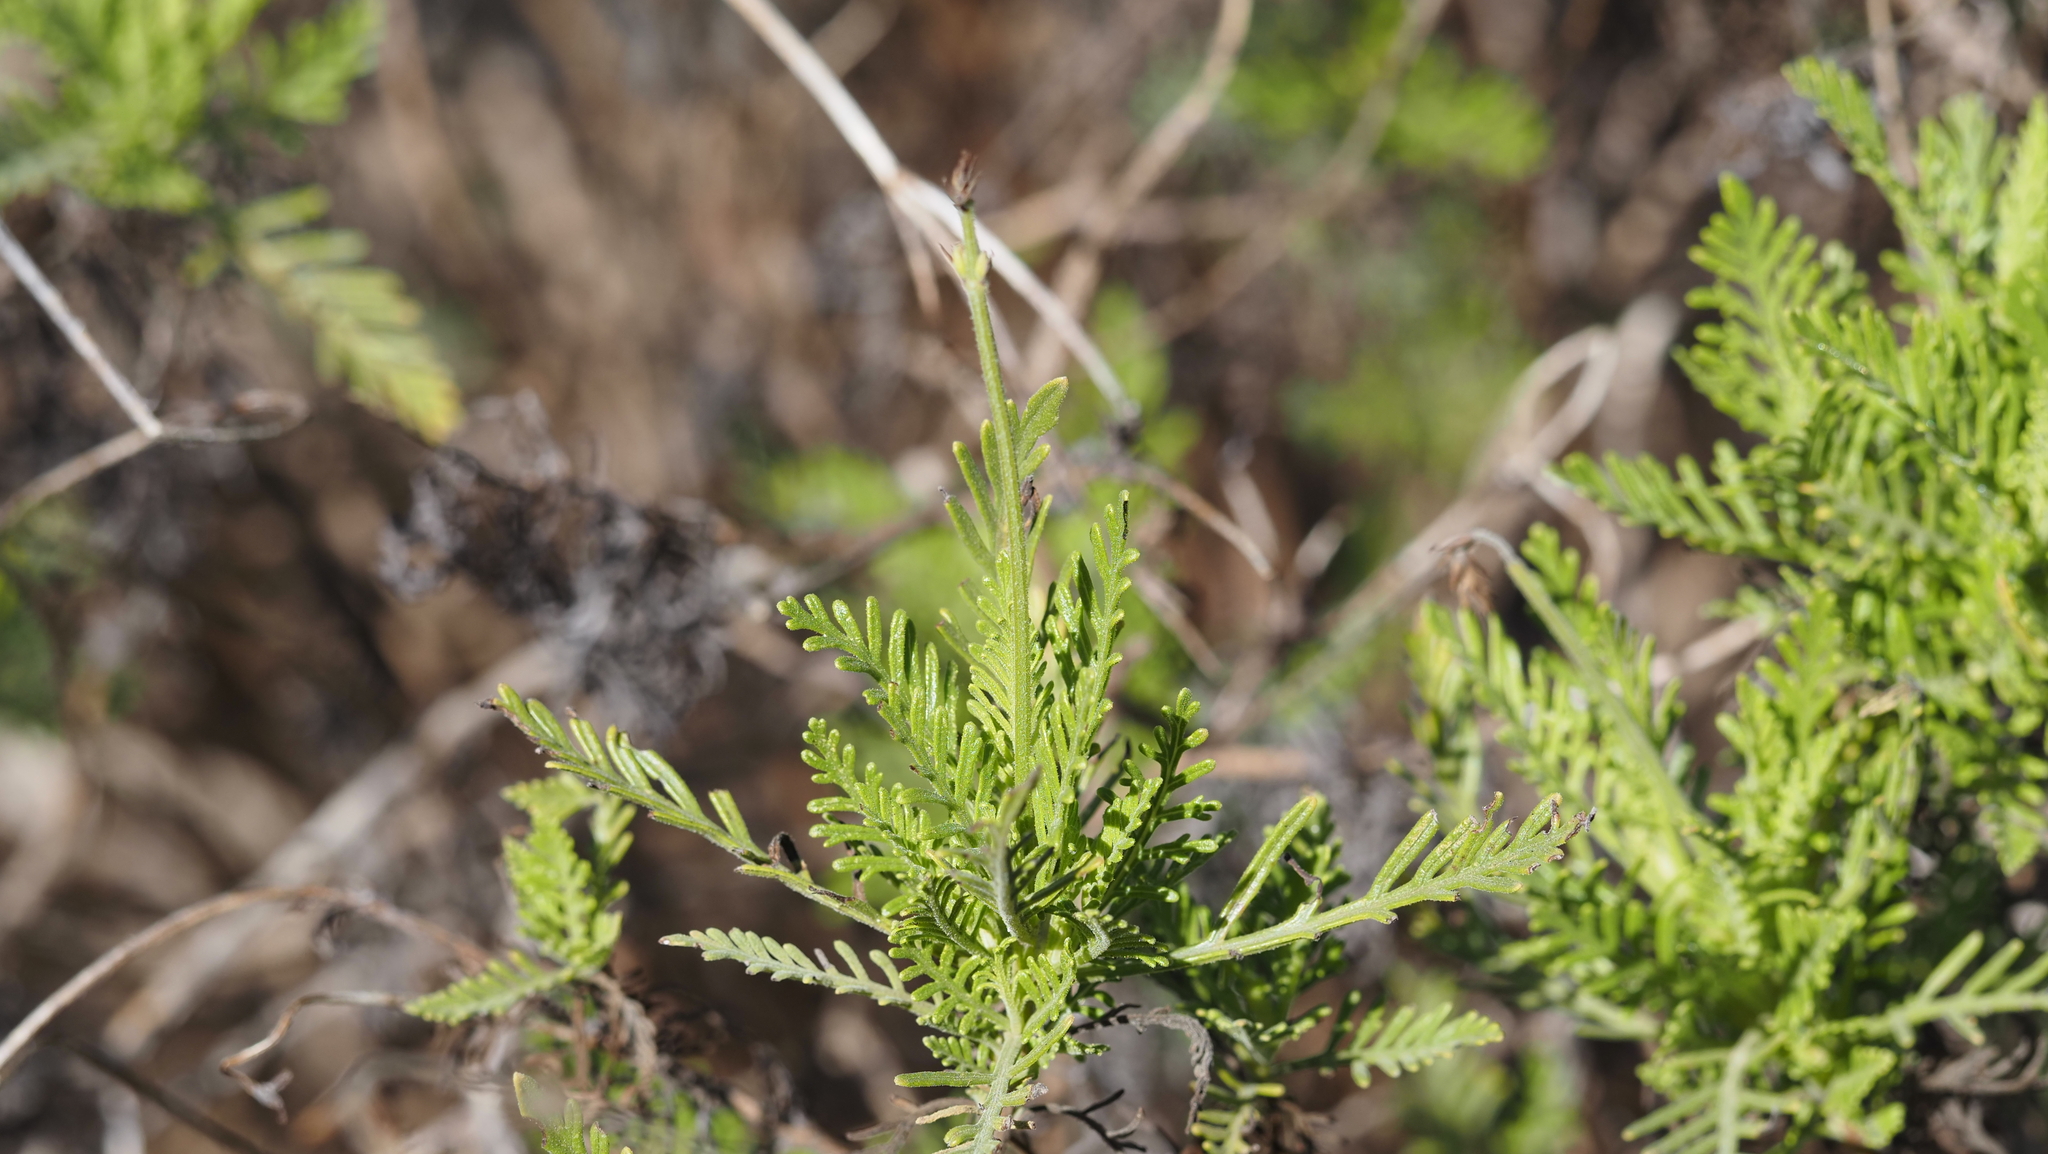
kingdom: Plantae
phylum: Tracheophyta
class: Magnoliopsida
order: Lamiales
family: Lamiaceae
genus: Lavandula
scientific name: Lavandula canariensis
